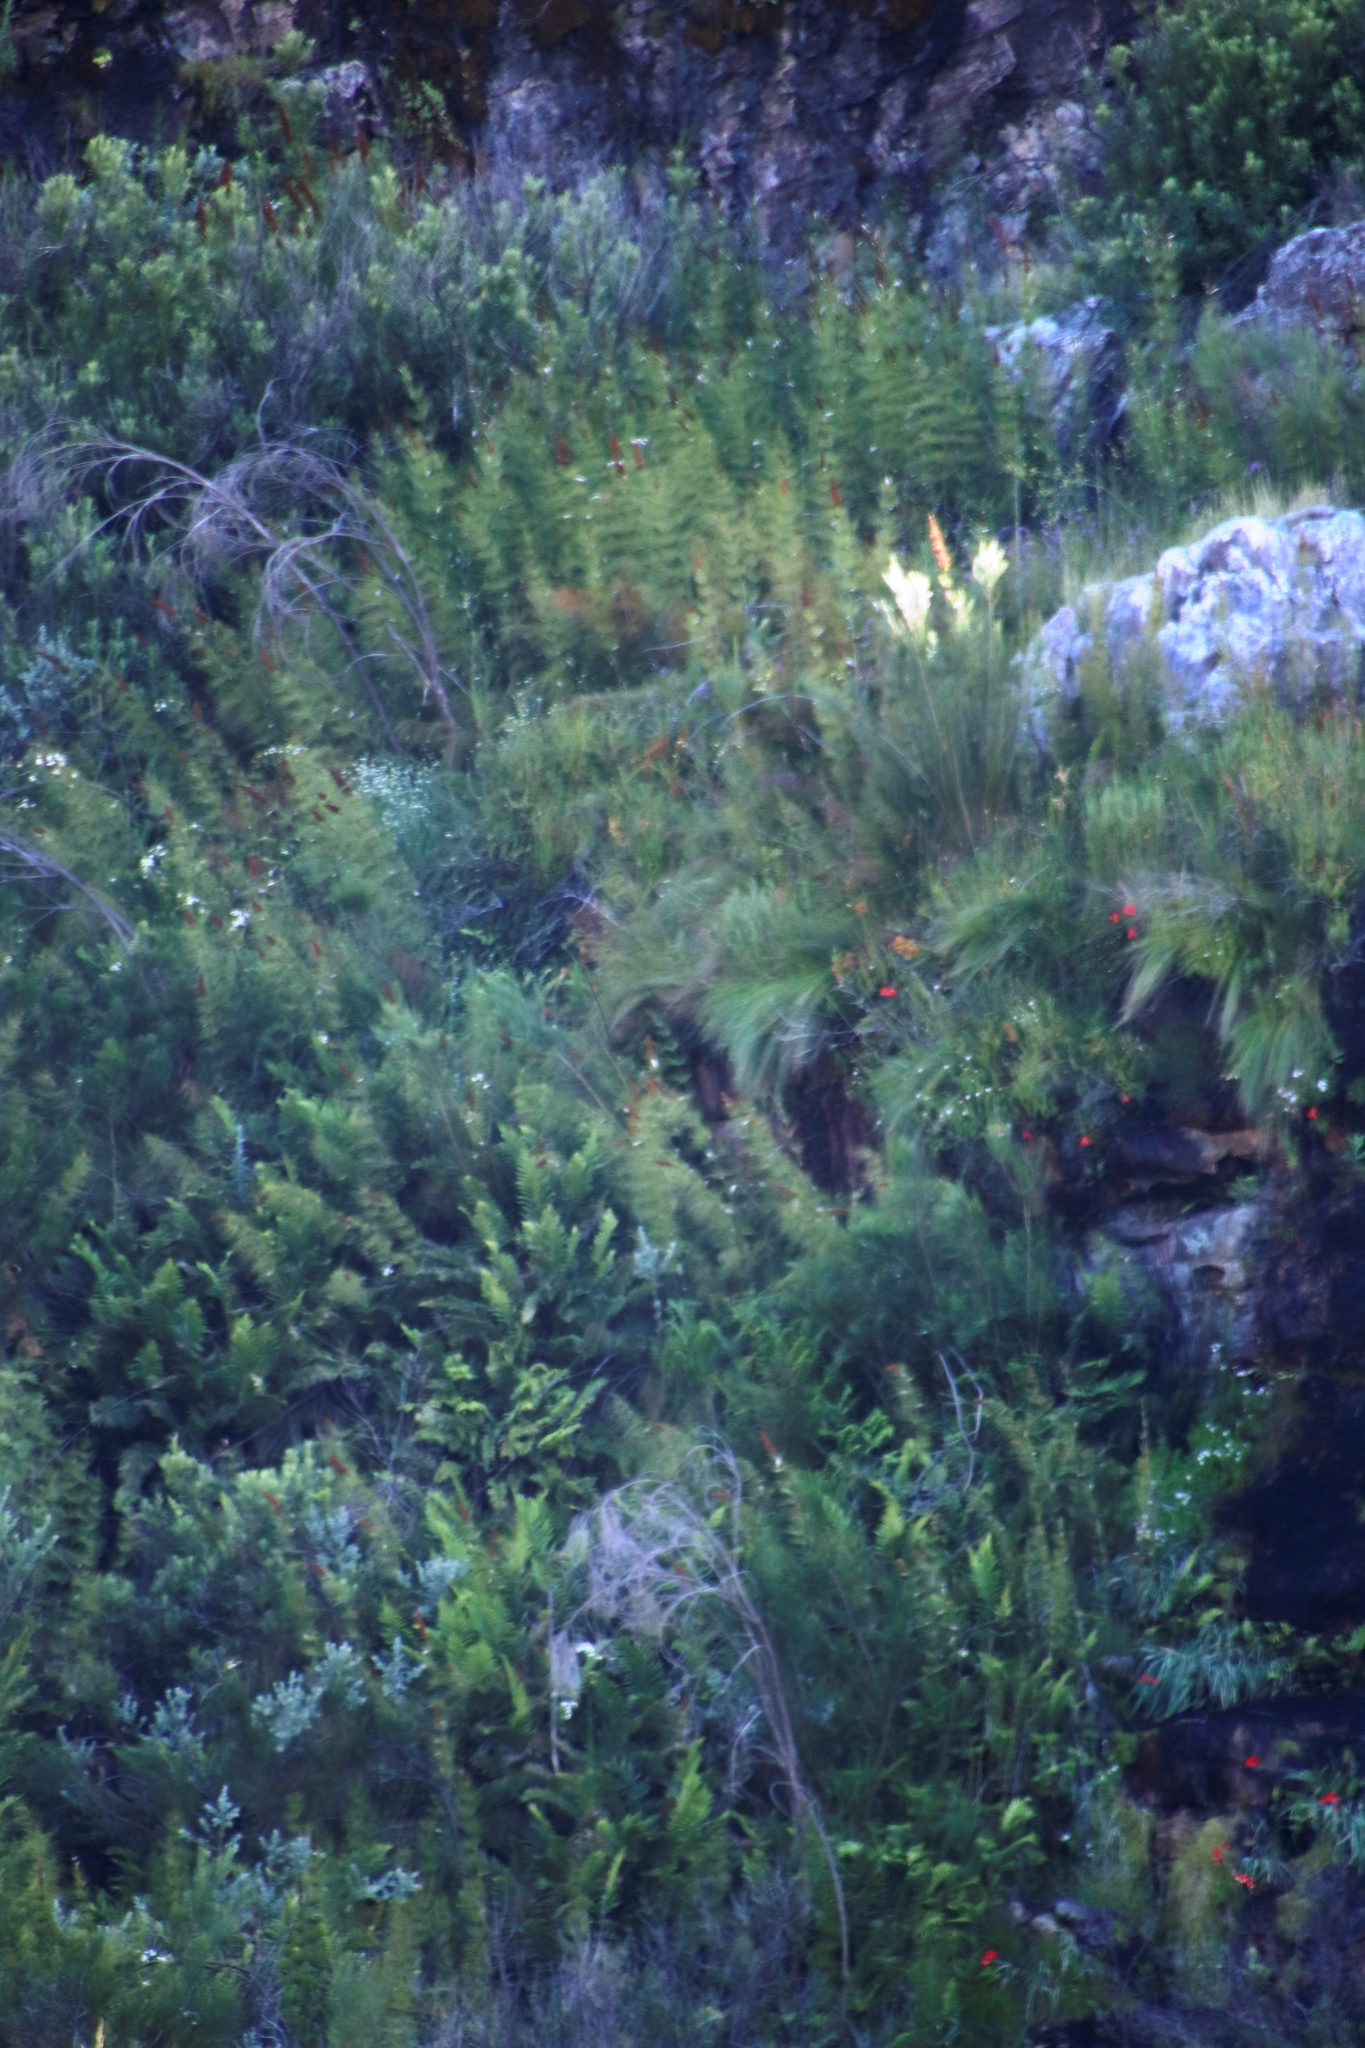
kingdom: Plantae
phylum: Tracheophyta
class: Liliopsida
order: Asparagales
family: Iridaceae
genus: Gladiolus
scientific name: Gladiolus cardinalis
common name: New year-lily
